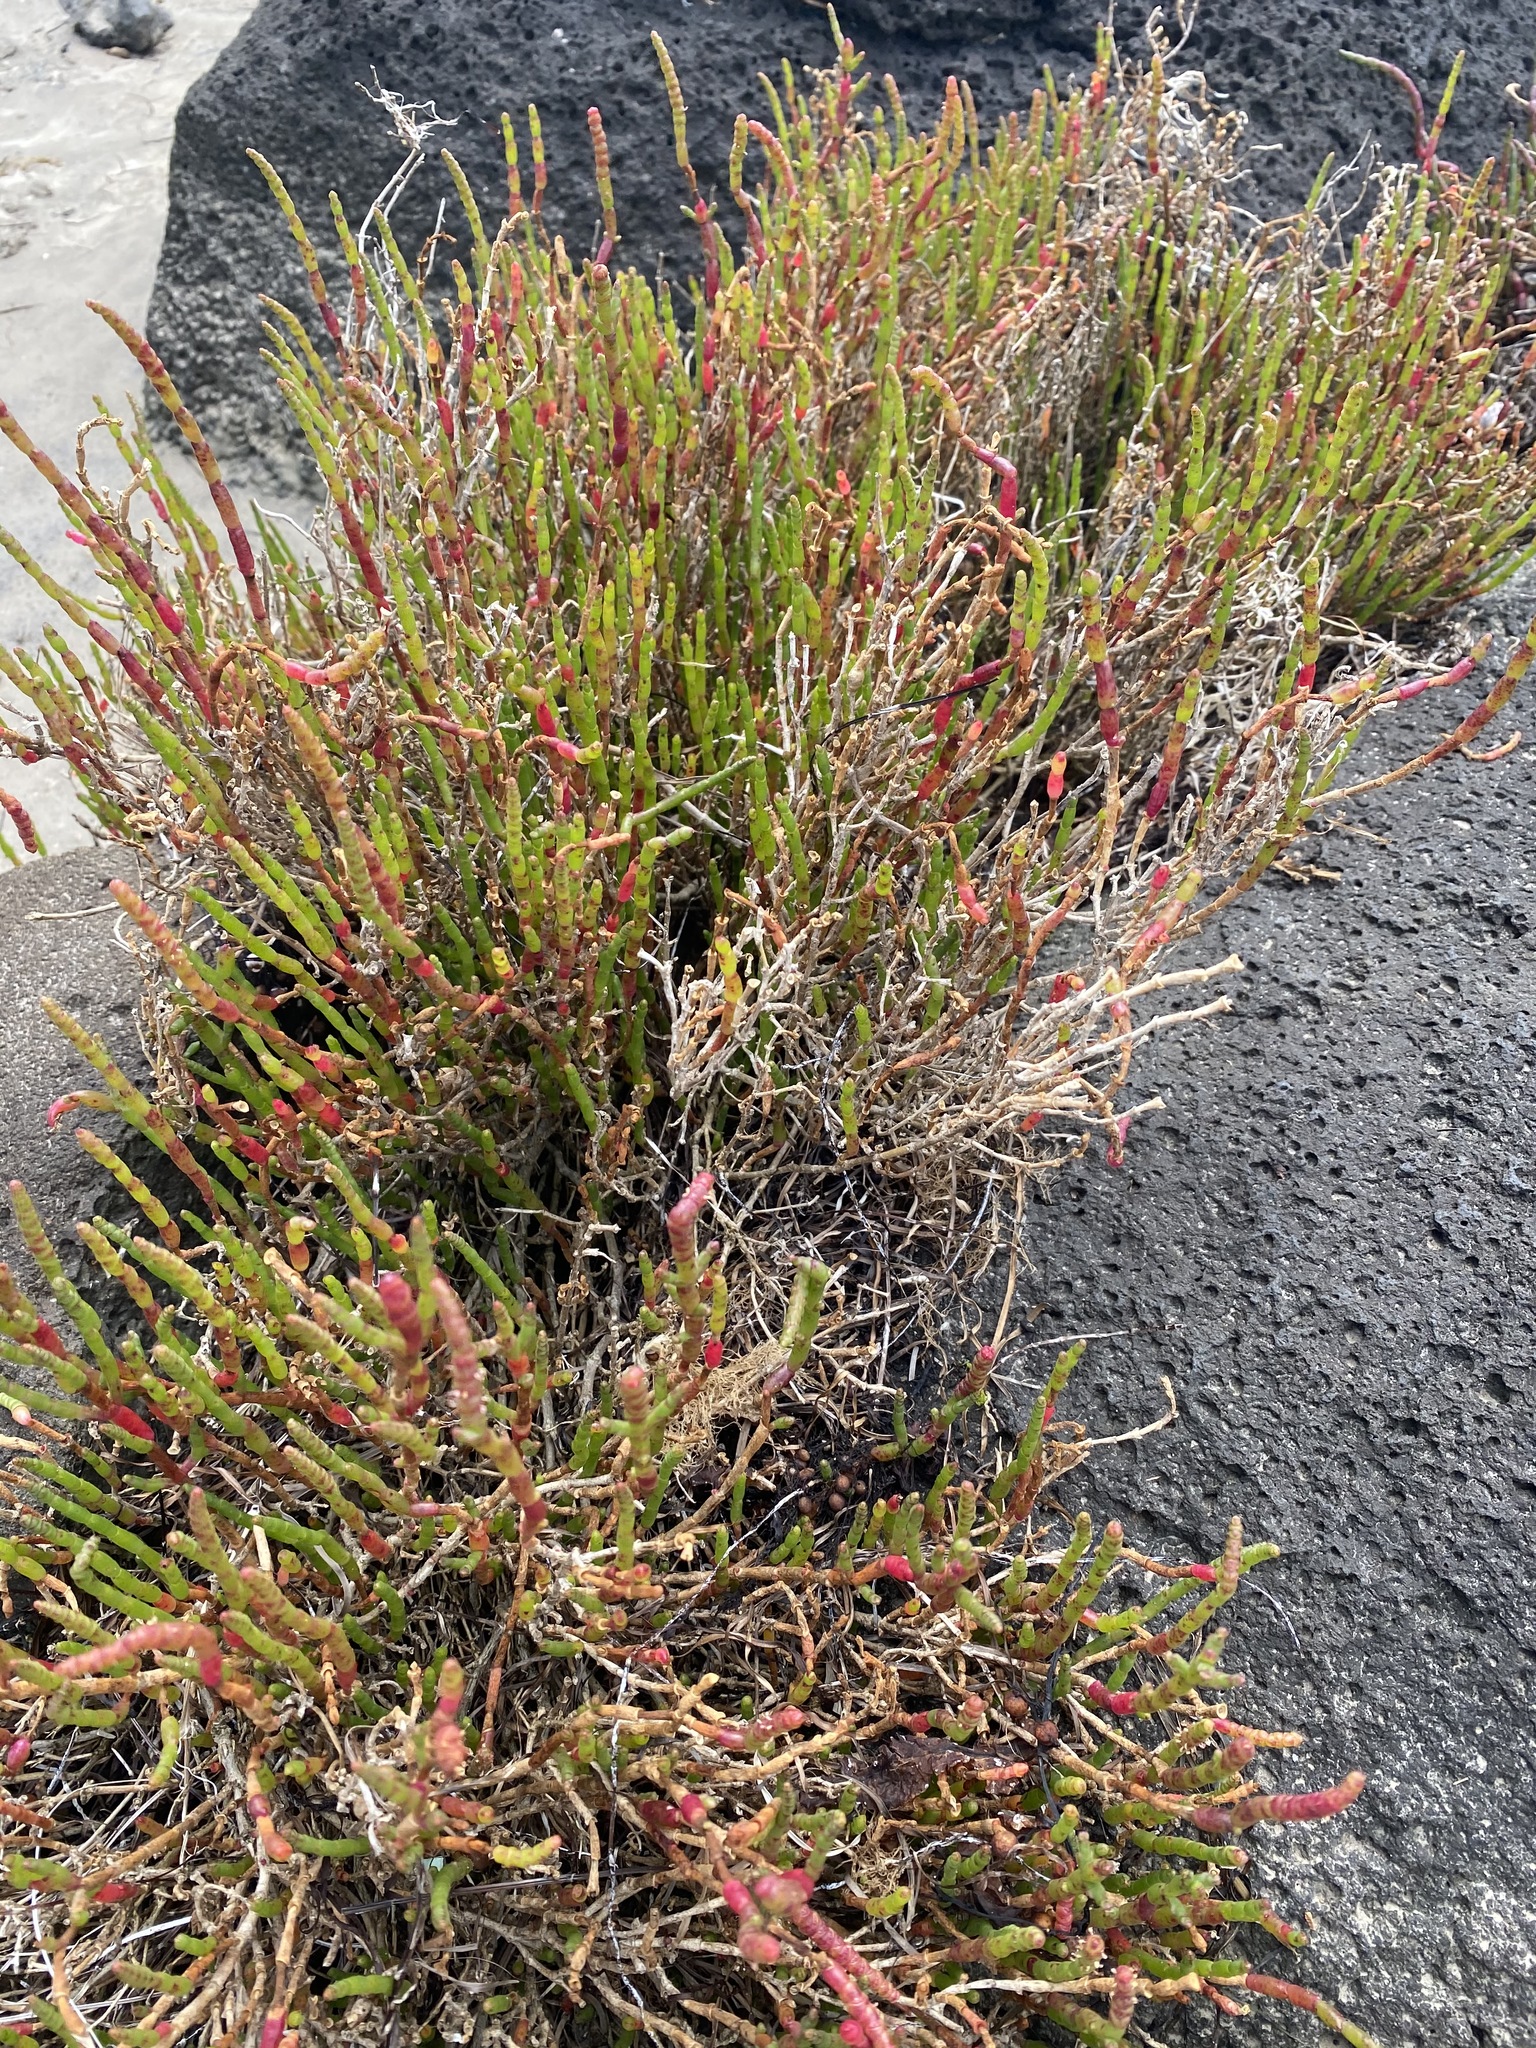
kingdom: Plantae
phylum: Tracheophyta
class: Magnoliopsida
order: Caryophyllales
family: Amaranthaceae
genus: Salicornia
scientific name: Salicornia quinqueflora
